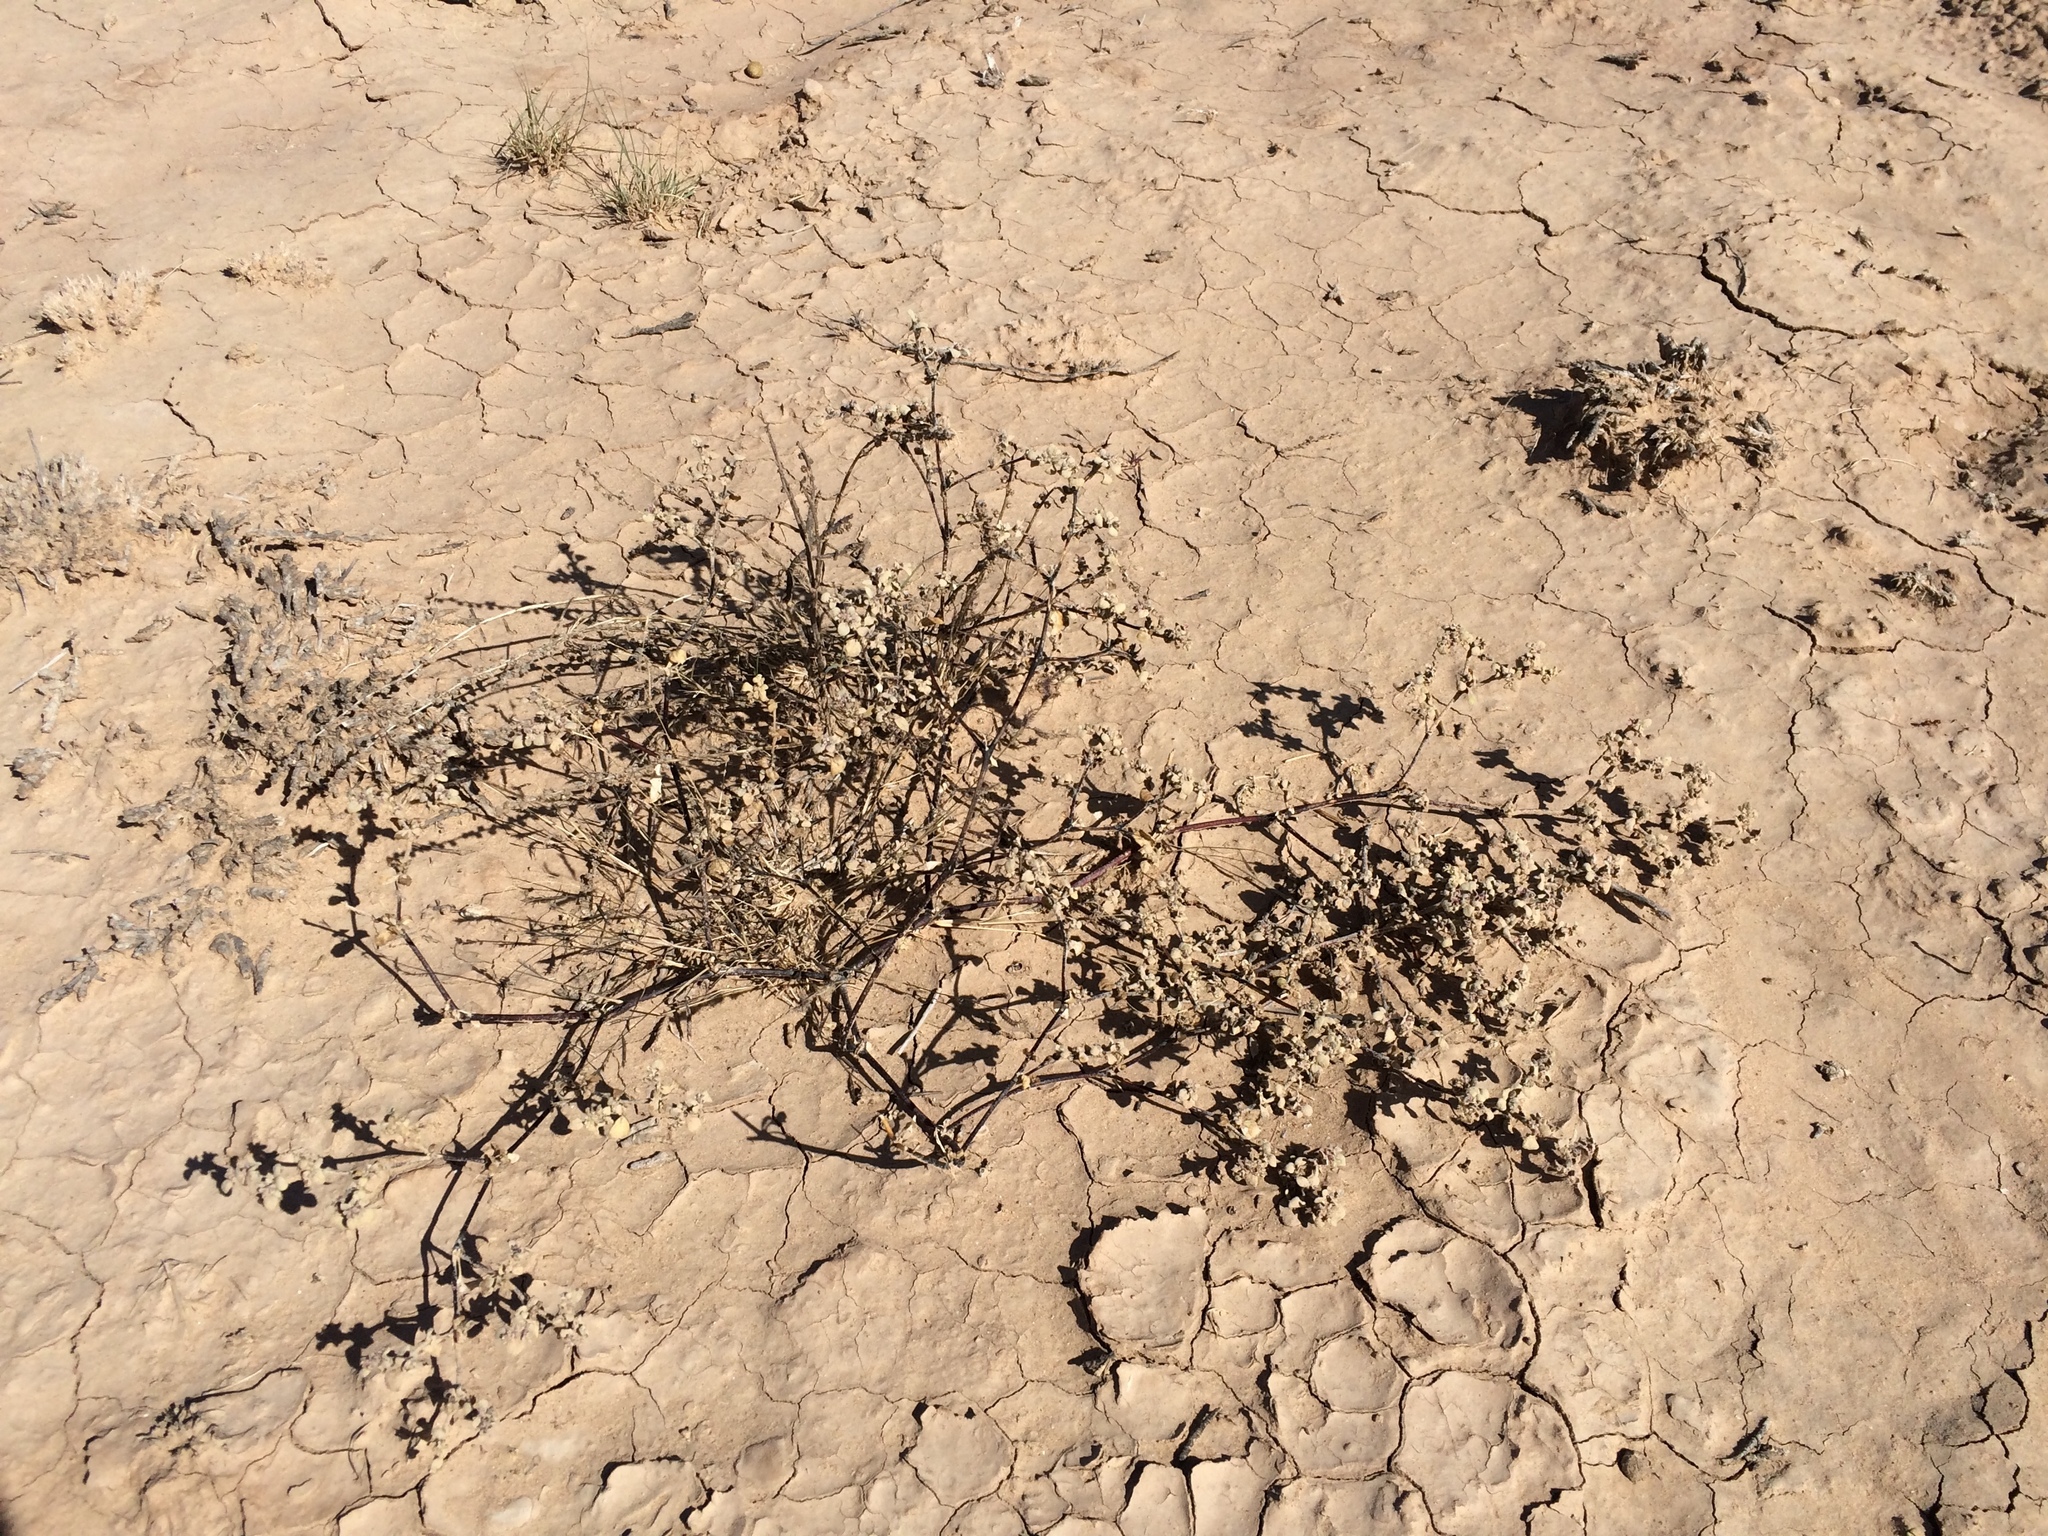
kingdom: Plantae
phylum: Tracheophyta
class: Magnoliopsida
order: Caryophyllales
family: Amaranthaceae
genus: Tidestromia
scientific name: Tidestromia lanuginosa
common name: Woolly tidestromia
